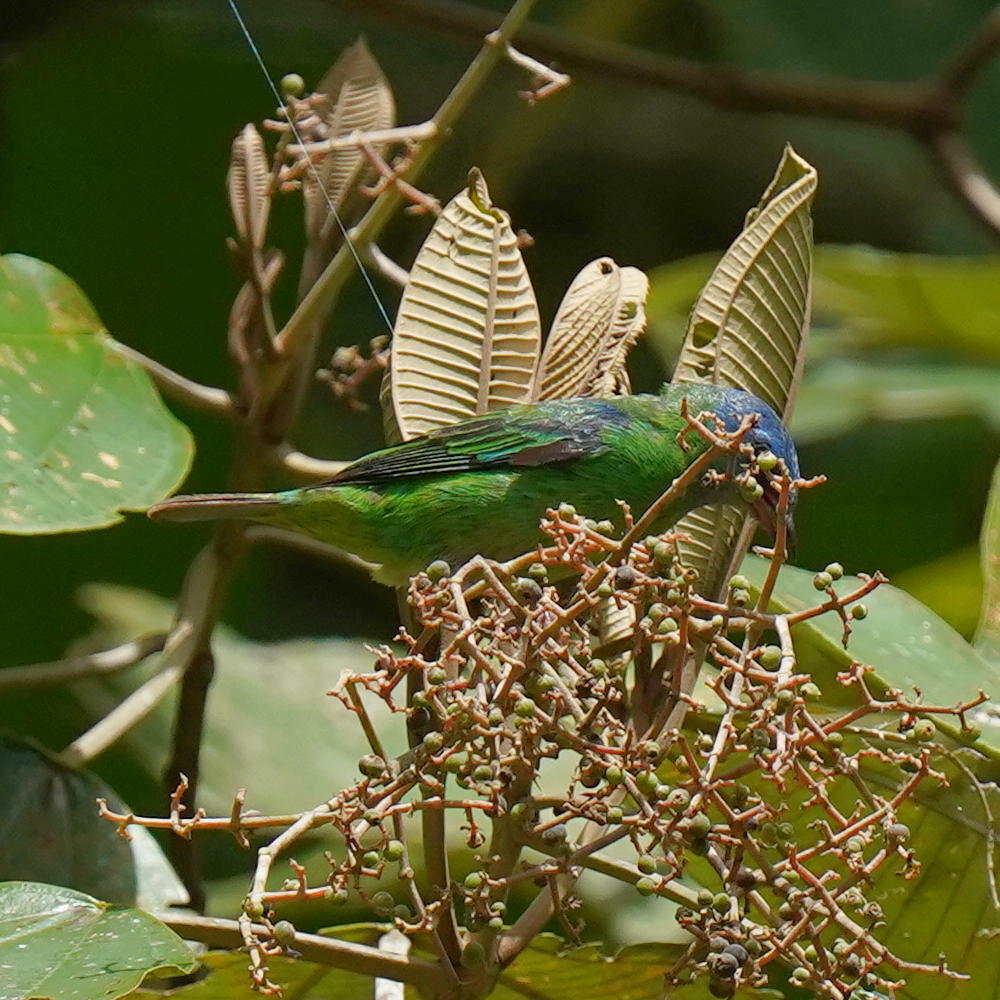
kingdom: Animalia
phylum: Chordata
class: Aves
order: Passeriformes
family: Thraupidae
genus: Dacnis
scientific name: Dacnis cayana
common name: Blue dacnis
